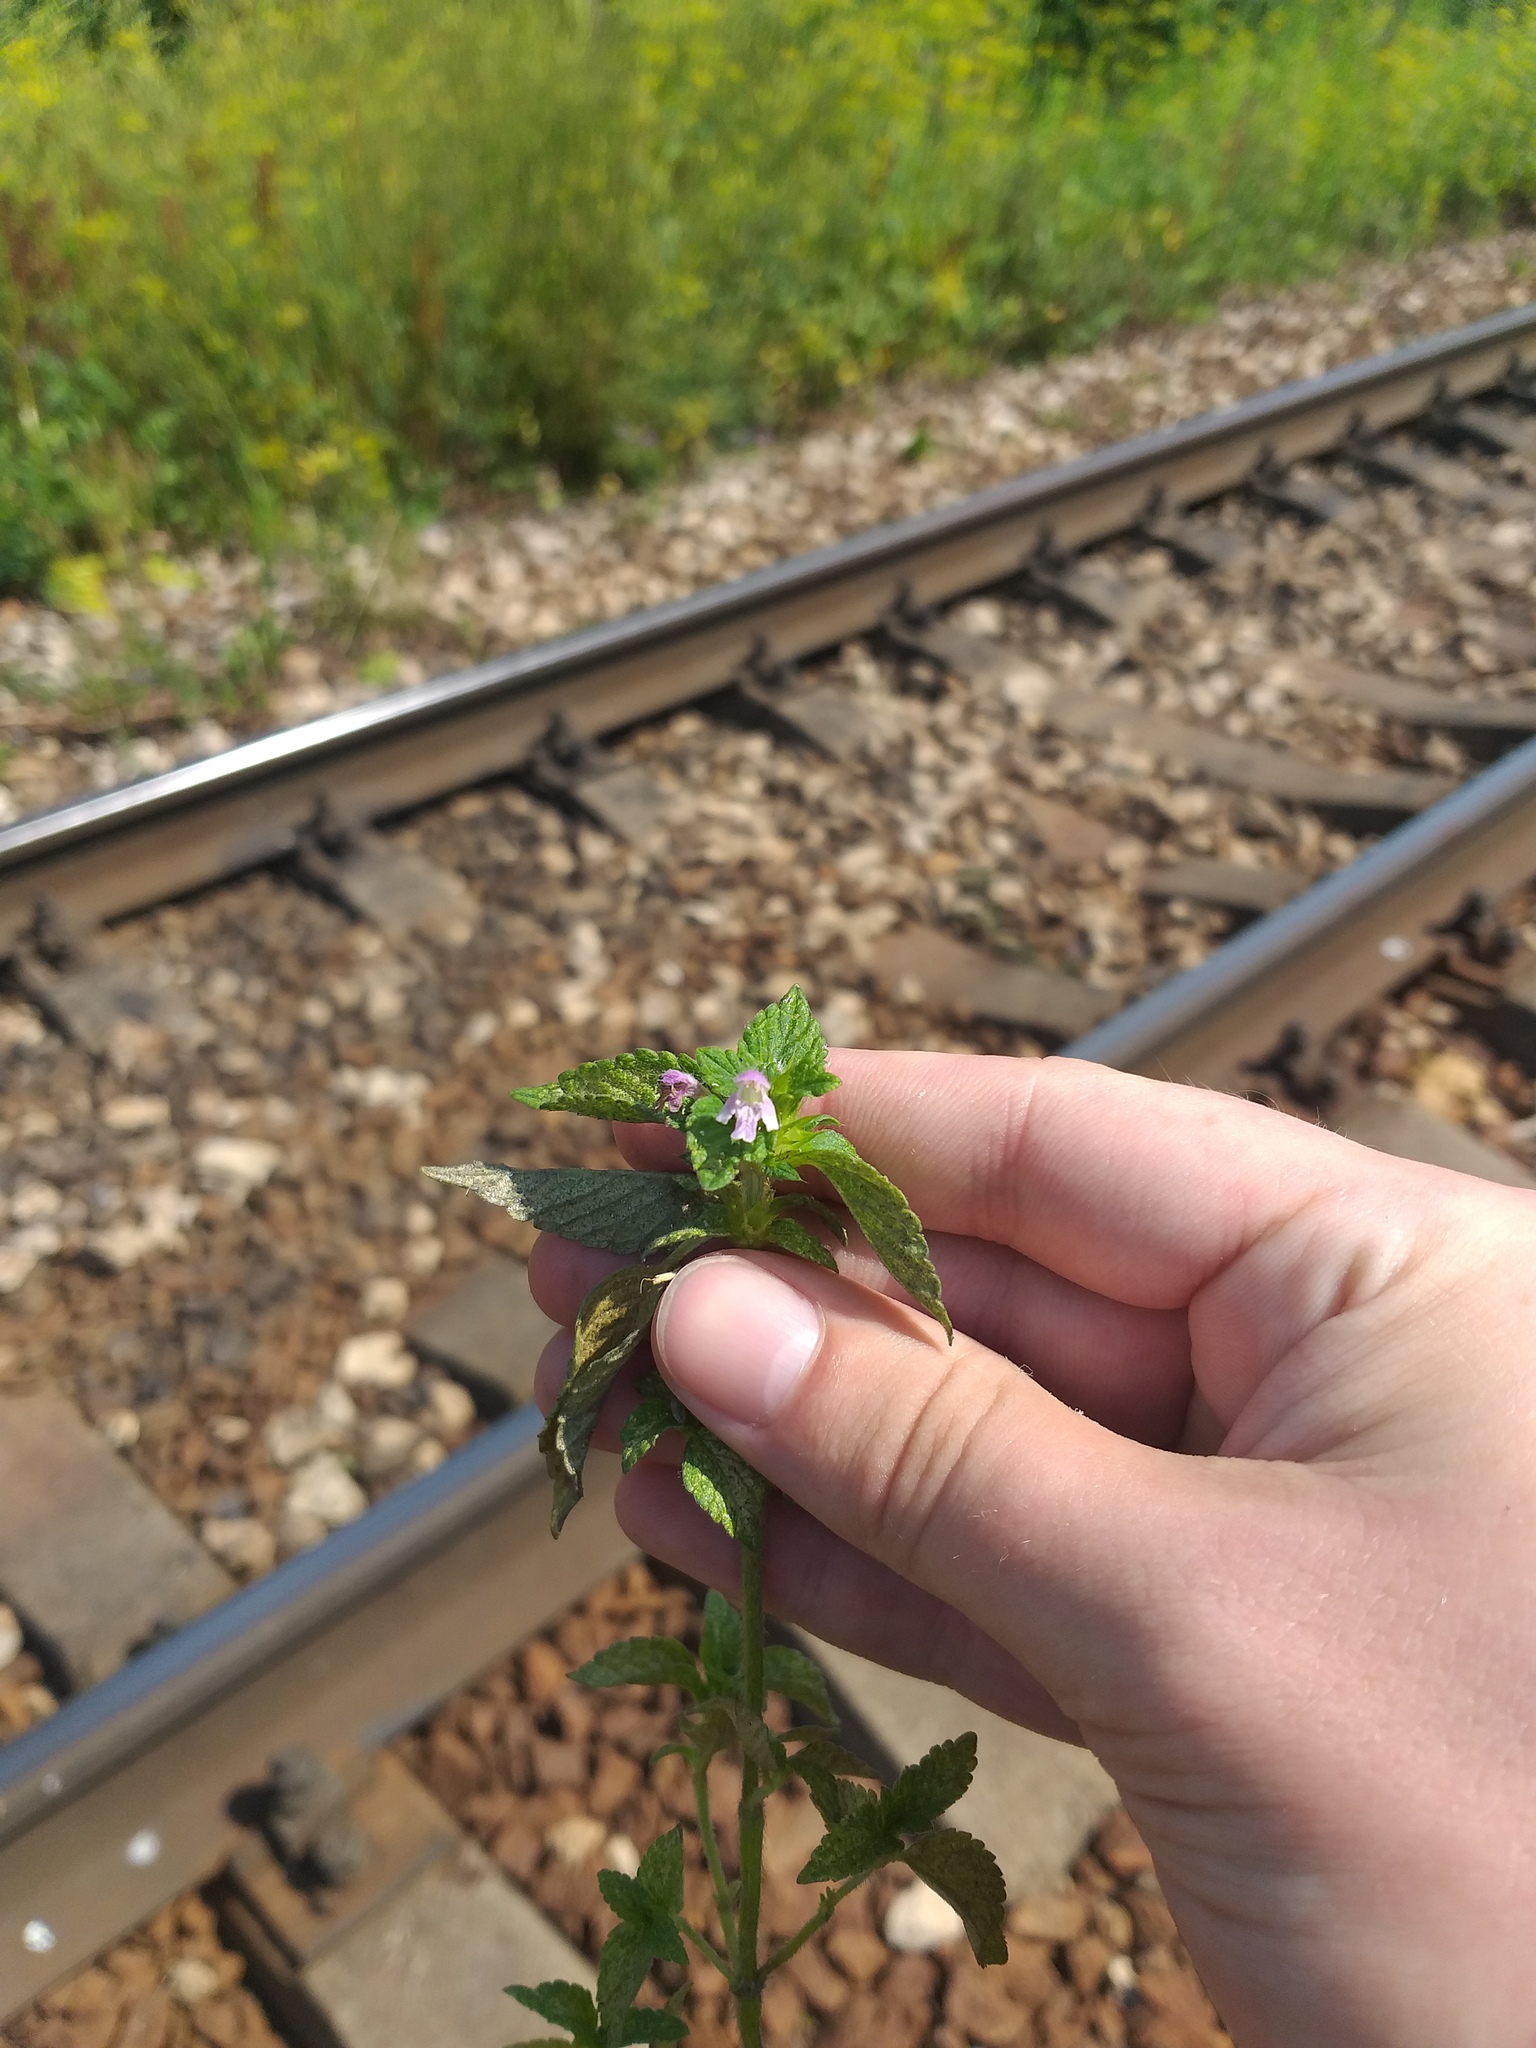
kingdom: Plantae
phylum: Tracheophyta
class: Magnoliopsida
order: Lamiales
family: Lamiaceae
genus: Galeopsis
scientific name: Galeopsis bifida
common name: Bifid hemp-nettle
